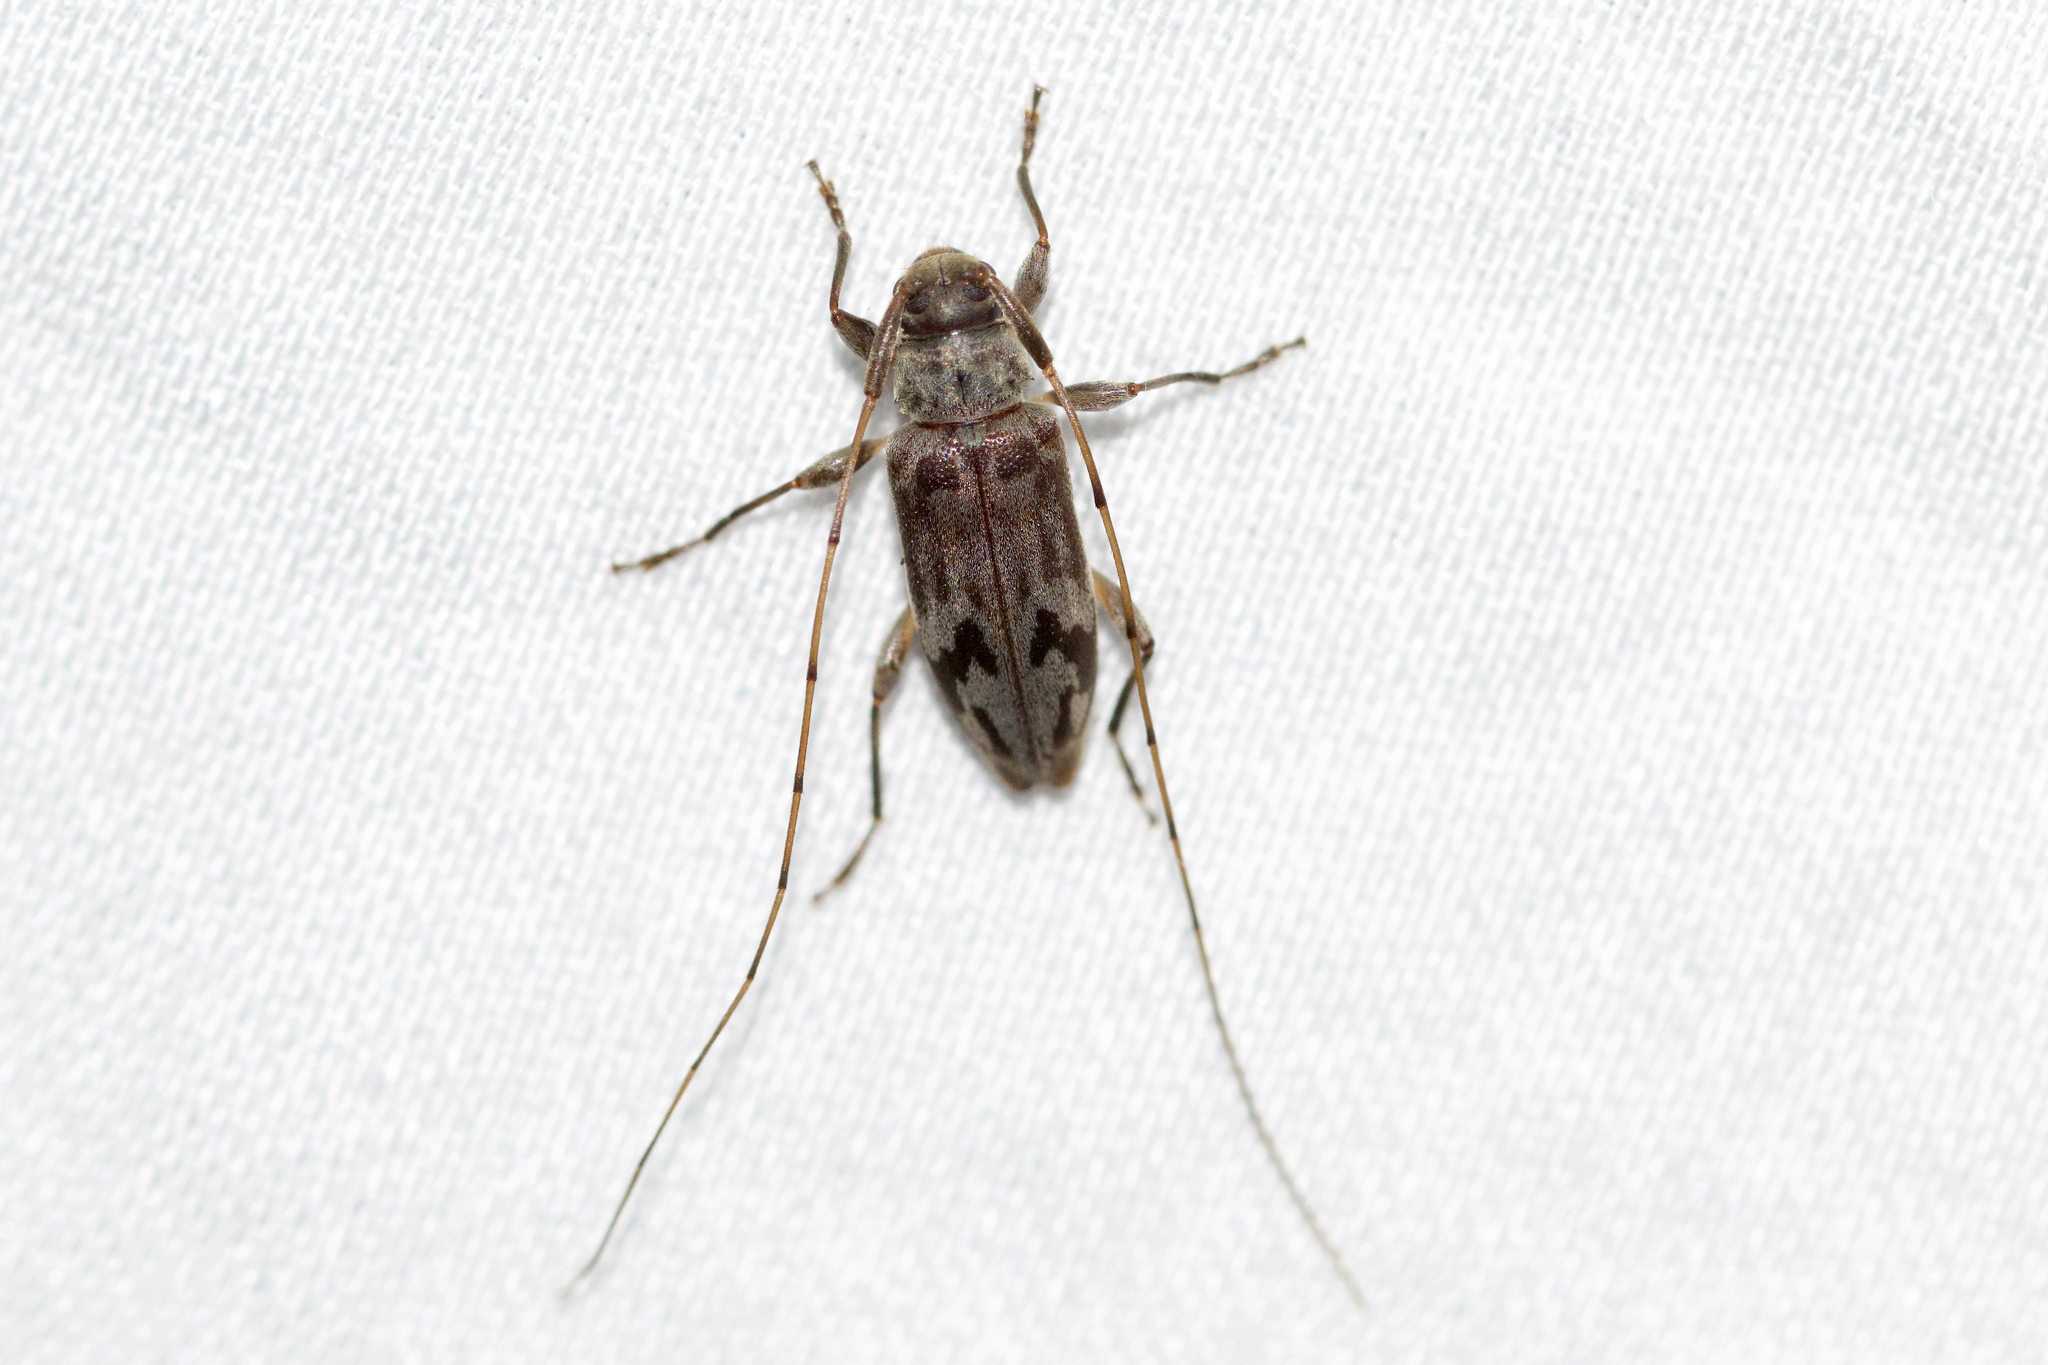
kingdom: Animalia
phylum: Arthropoda
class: Insecta
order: Coleoptera
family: Cerambycidae
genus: Urgleptes
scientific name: Urgleptes signatus
